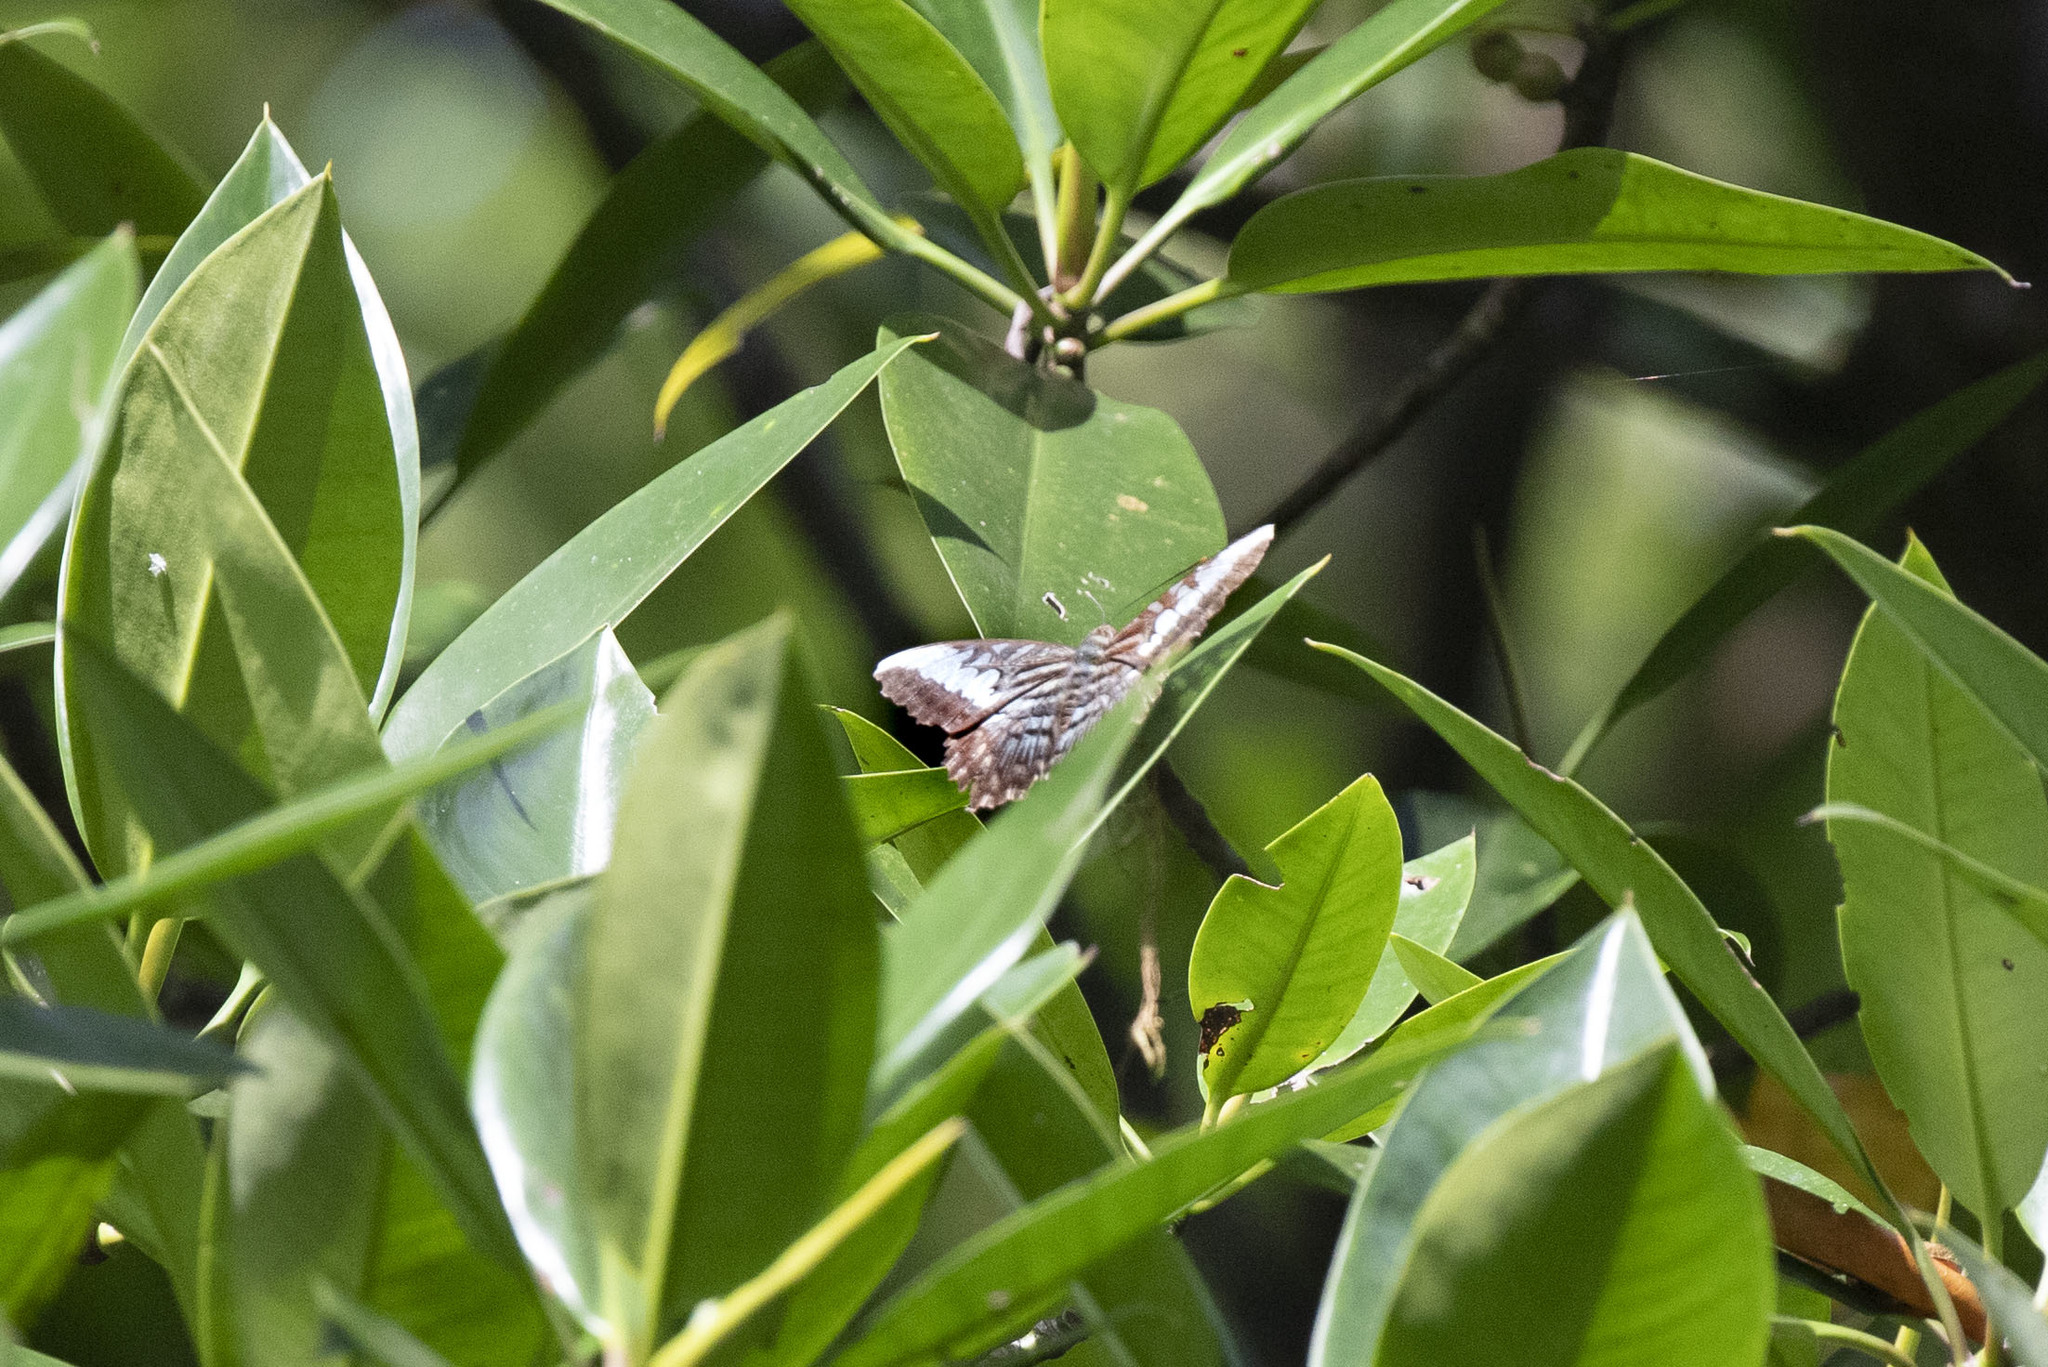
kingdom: Animalia
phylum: Arthropoda
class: Insecta
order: Lepidoptera
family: Nymphalidae
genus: Kallima
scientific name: Kallima sylvia
